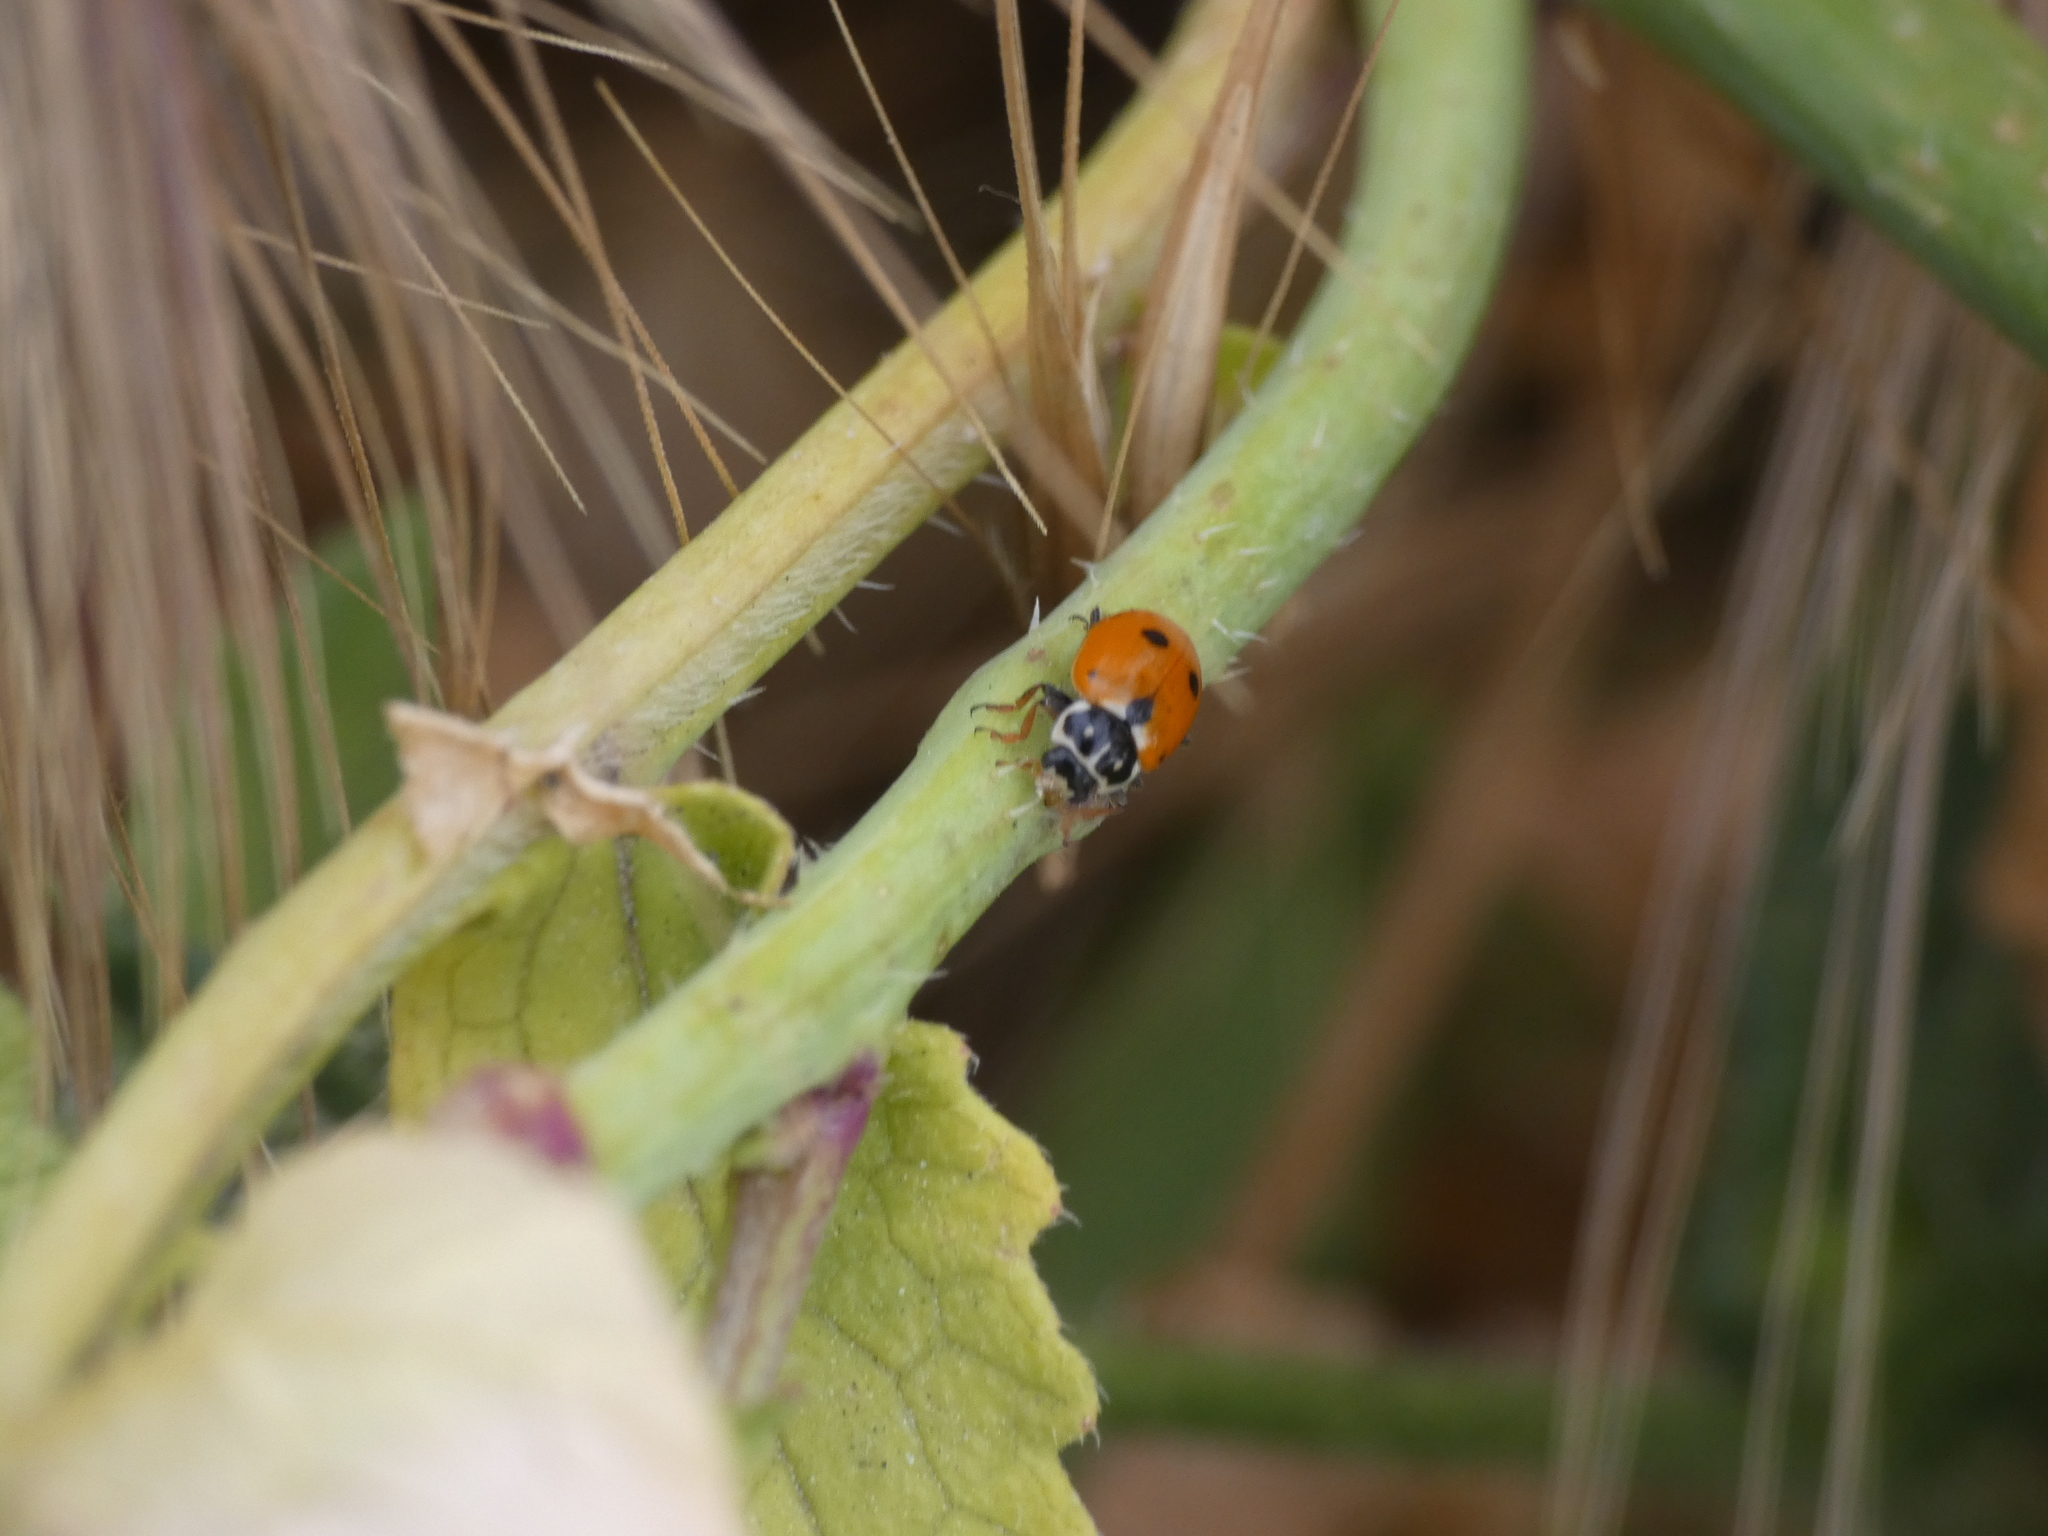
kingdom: Animalia
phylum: Arthropoda
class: Insecta
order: Coleoptera
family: Coccinellidae
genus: Hippodamia
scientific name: Hippodamia variegata
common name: Ladybird beetle
